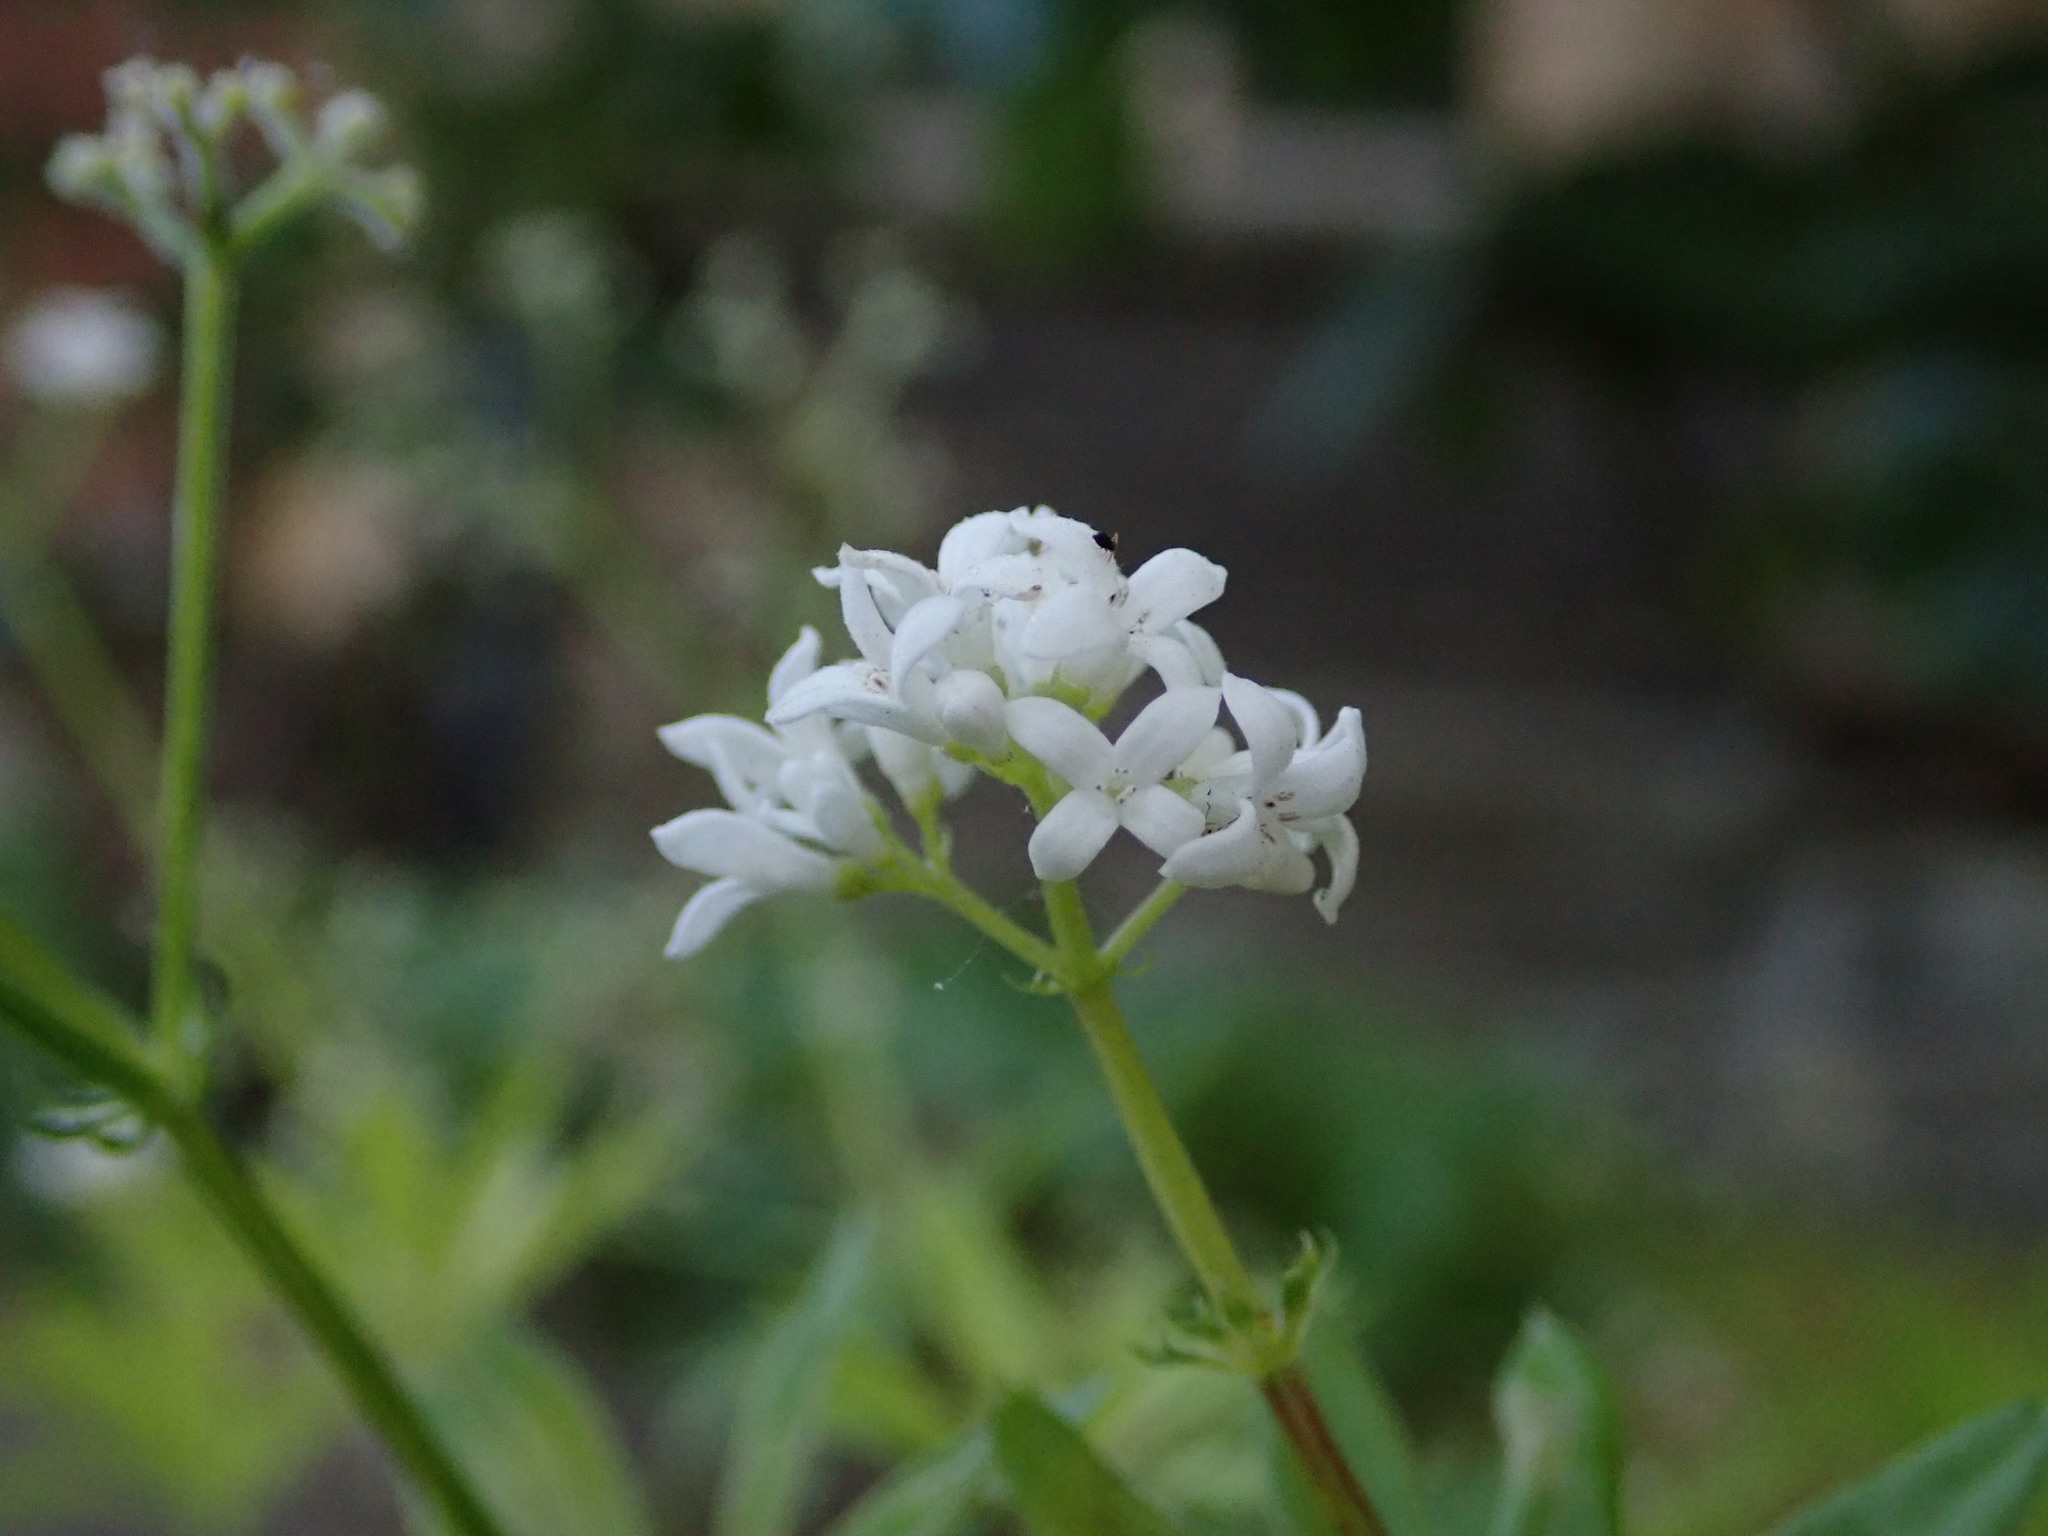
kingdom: Plantae
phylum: Tracheophyta
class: Magnoliopsida
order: Gentianales
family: Rubiaceae
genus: Galium
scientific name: Galium odoratum
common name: Sweet woodruff
